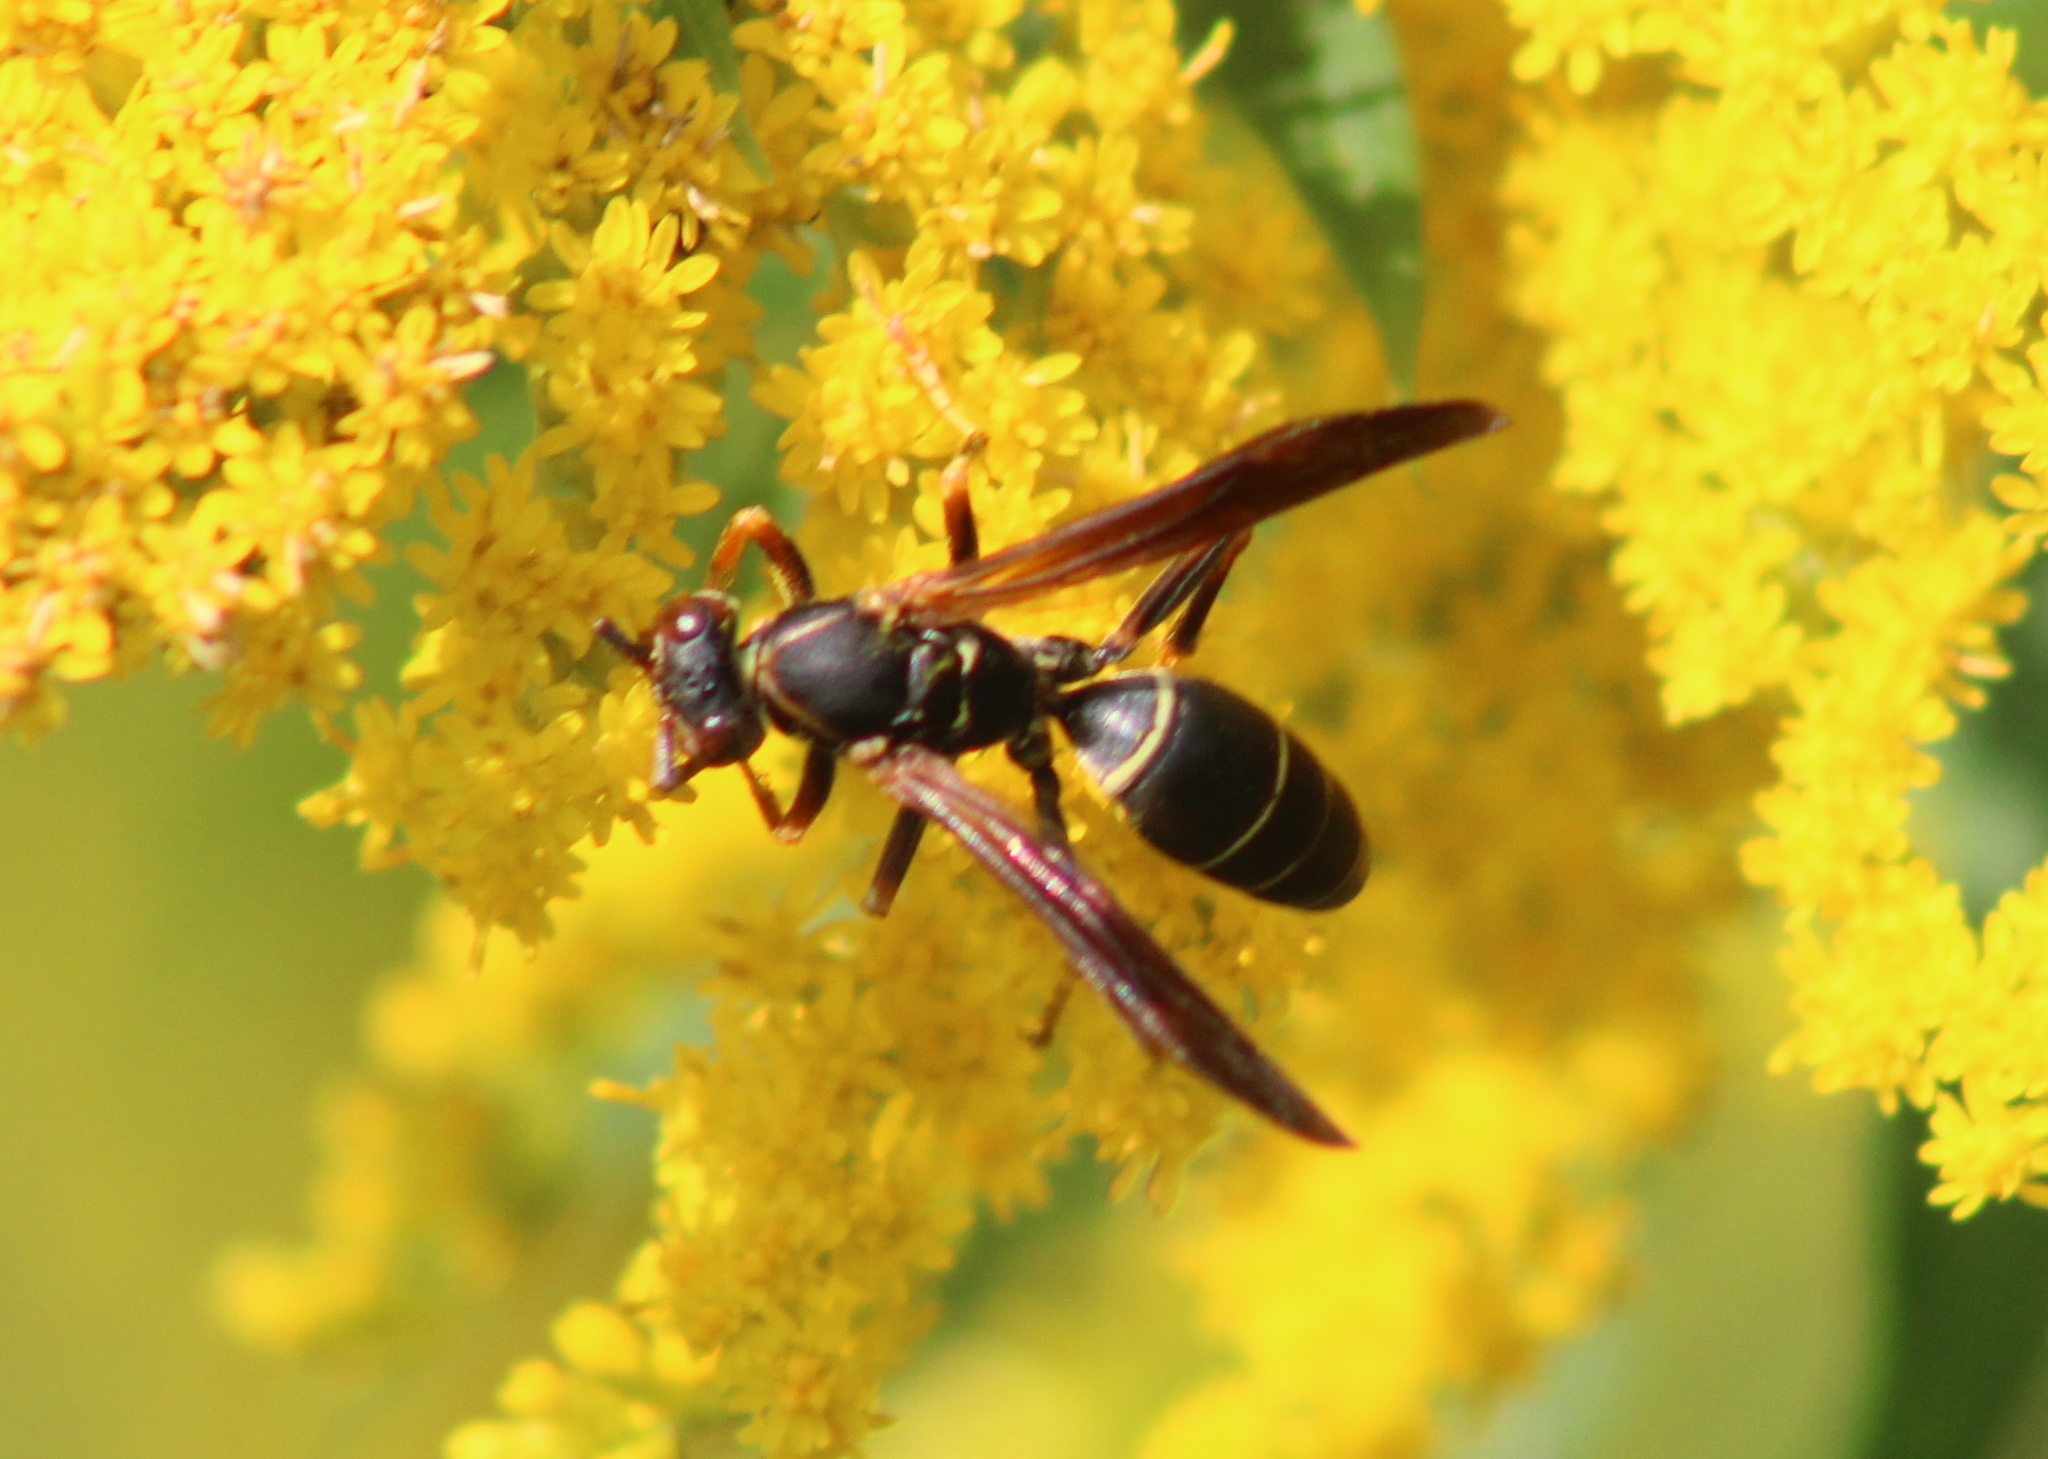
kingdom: Animalia
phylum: Arthropoda
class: Insecta
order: Hymenoptera
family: Eumenidae
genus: Polistes
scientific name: Polistes fuscatus
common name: Dark paper wasp
